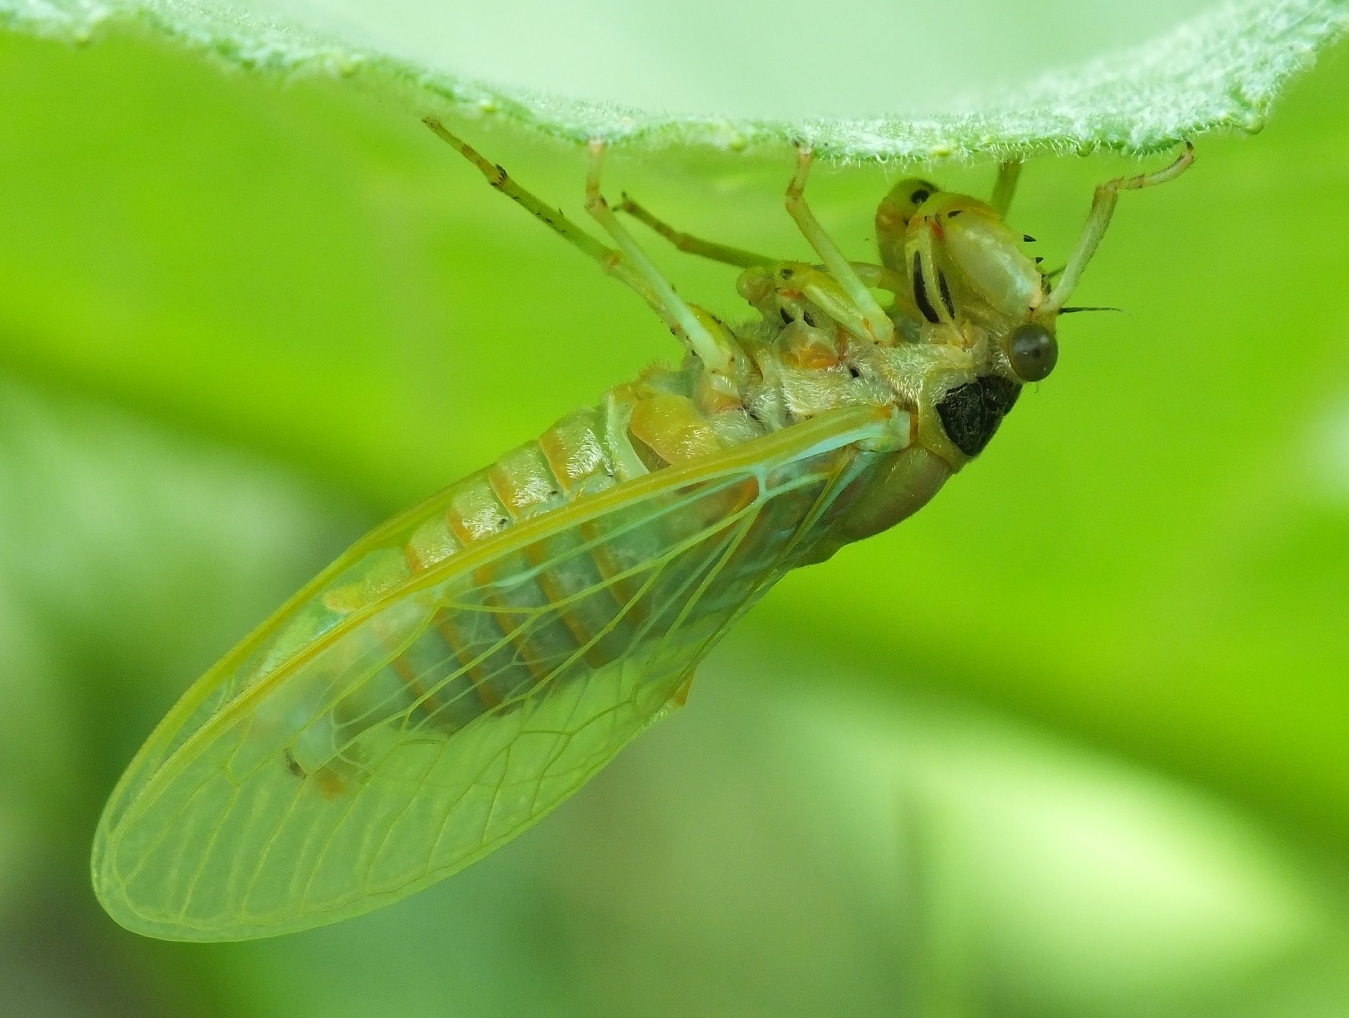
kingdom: Animalia
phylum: Arthropoda
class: Insecta
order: Hemiptera
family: Cicadidae
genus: Cicadetta
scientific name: Cicadetta montana
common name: New forest cicada
